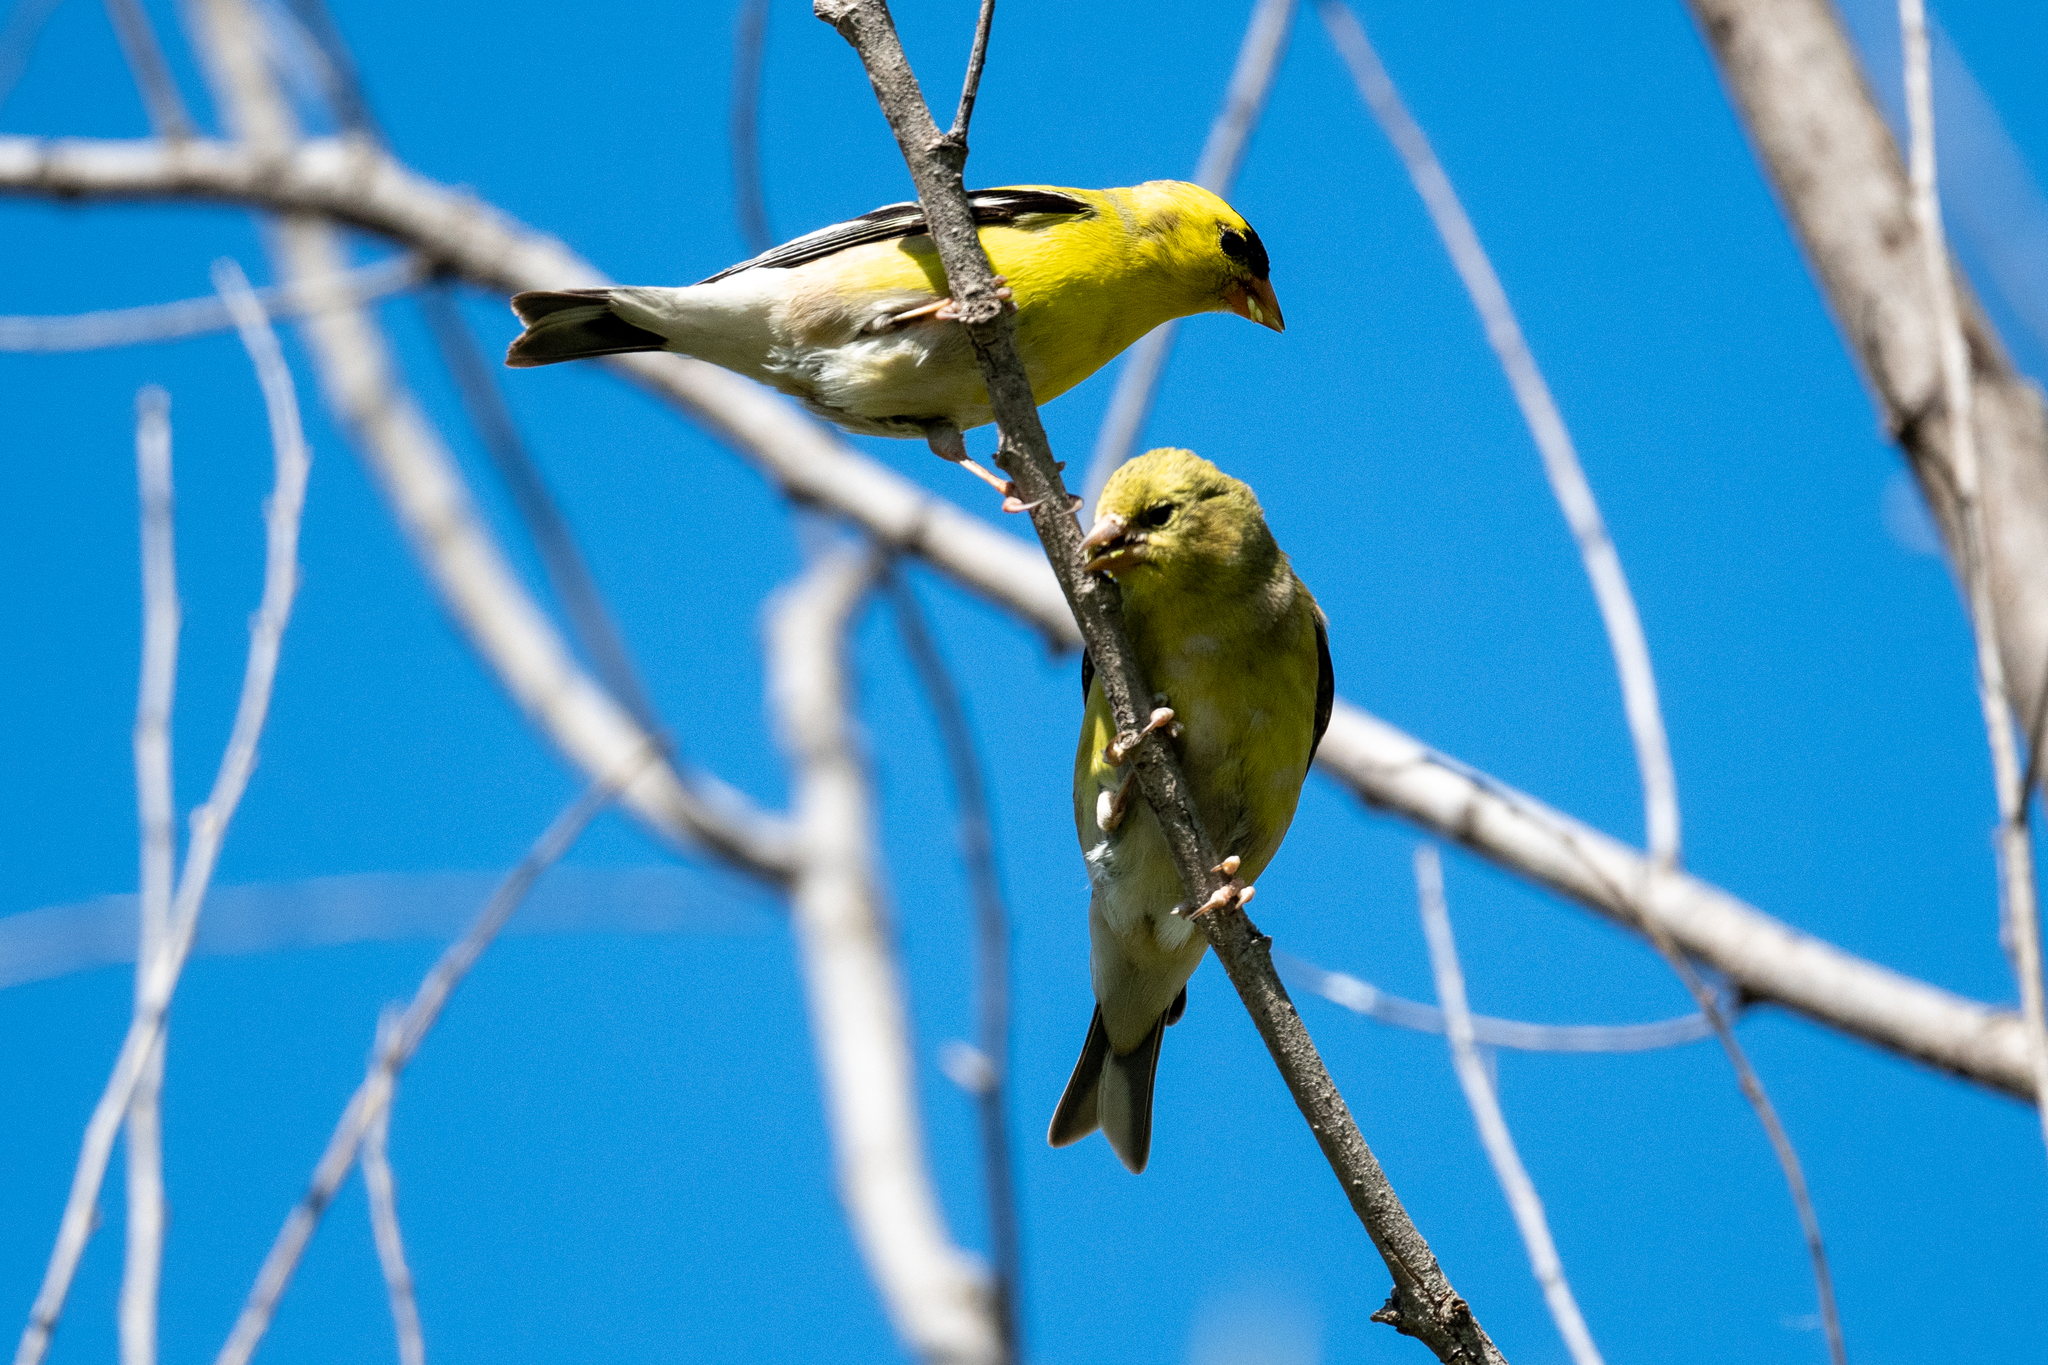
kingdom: Animalia
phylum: Chordata
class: Aves
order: Passeriformes
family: Fringillidae
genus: Spinus
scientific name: Spinus tristis
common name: American goldfinch
